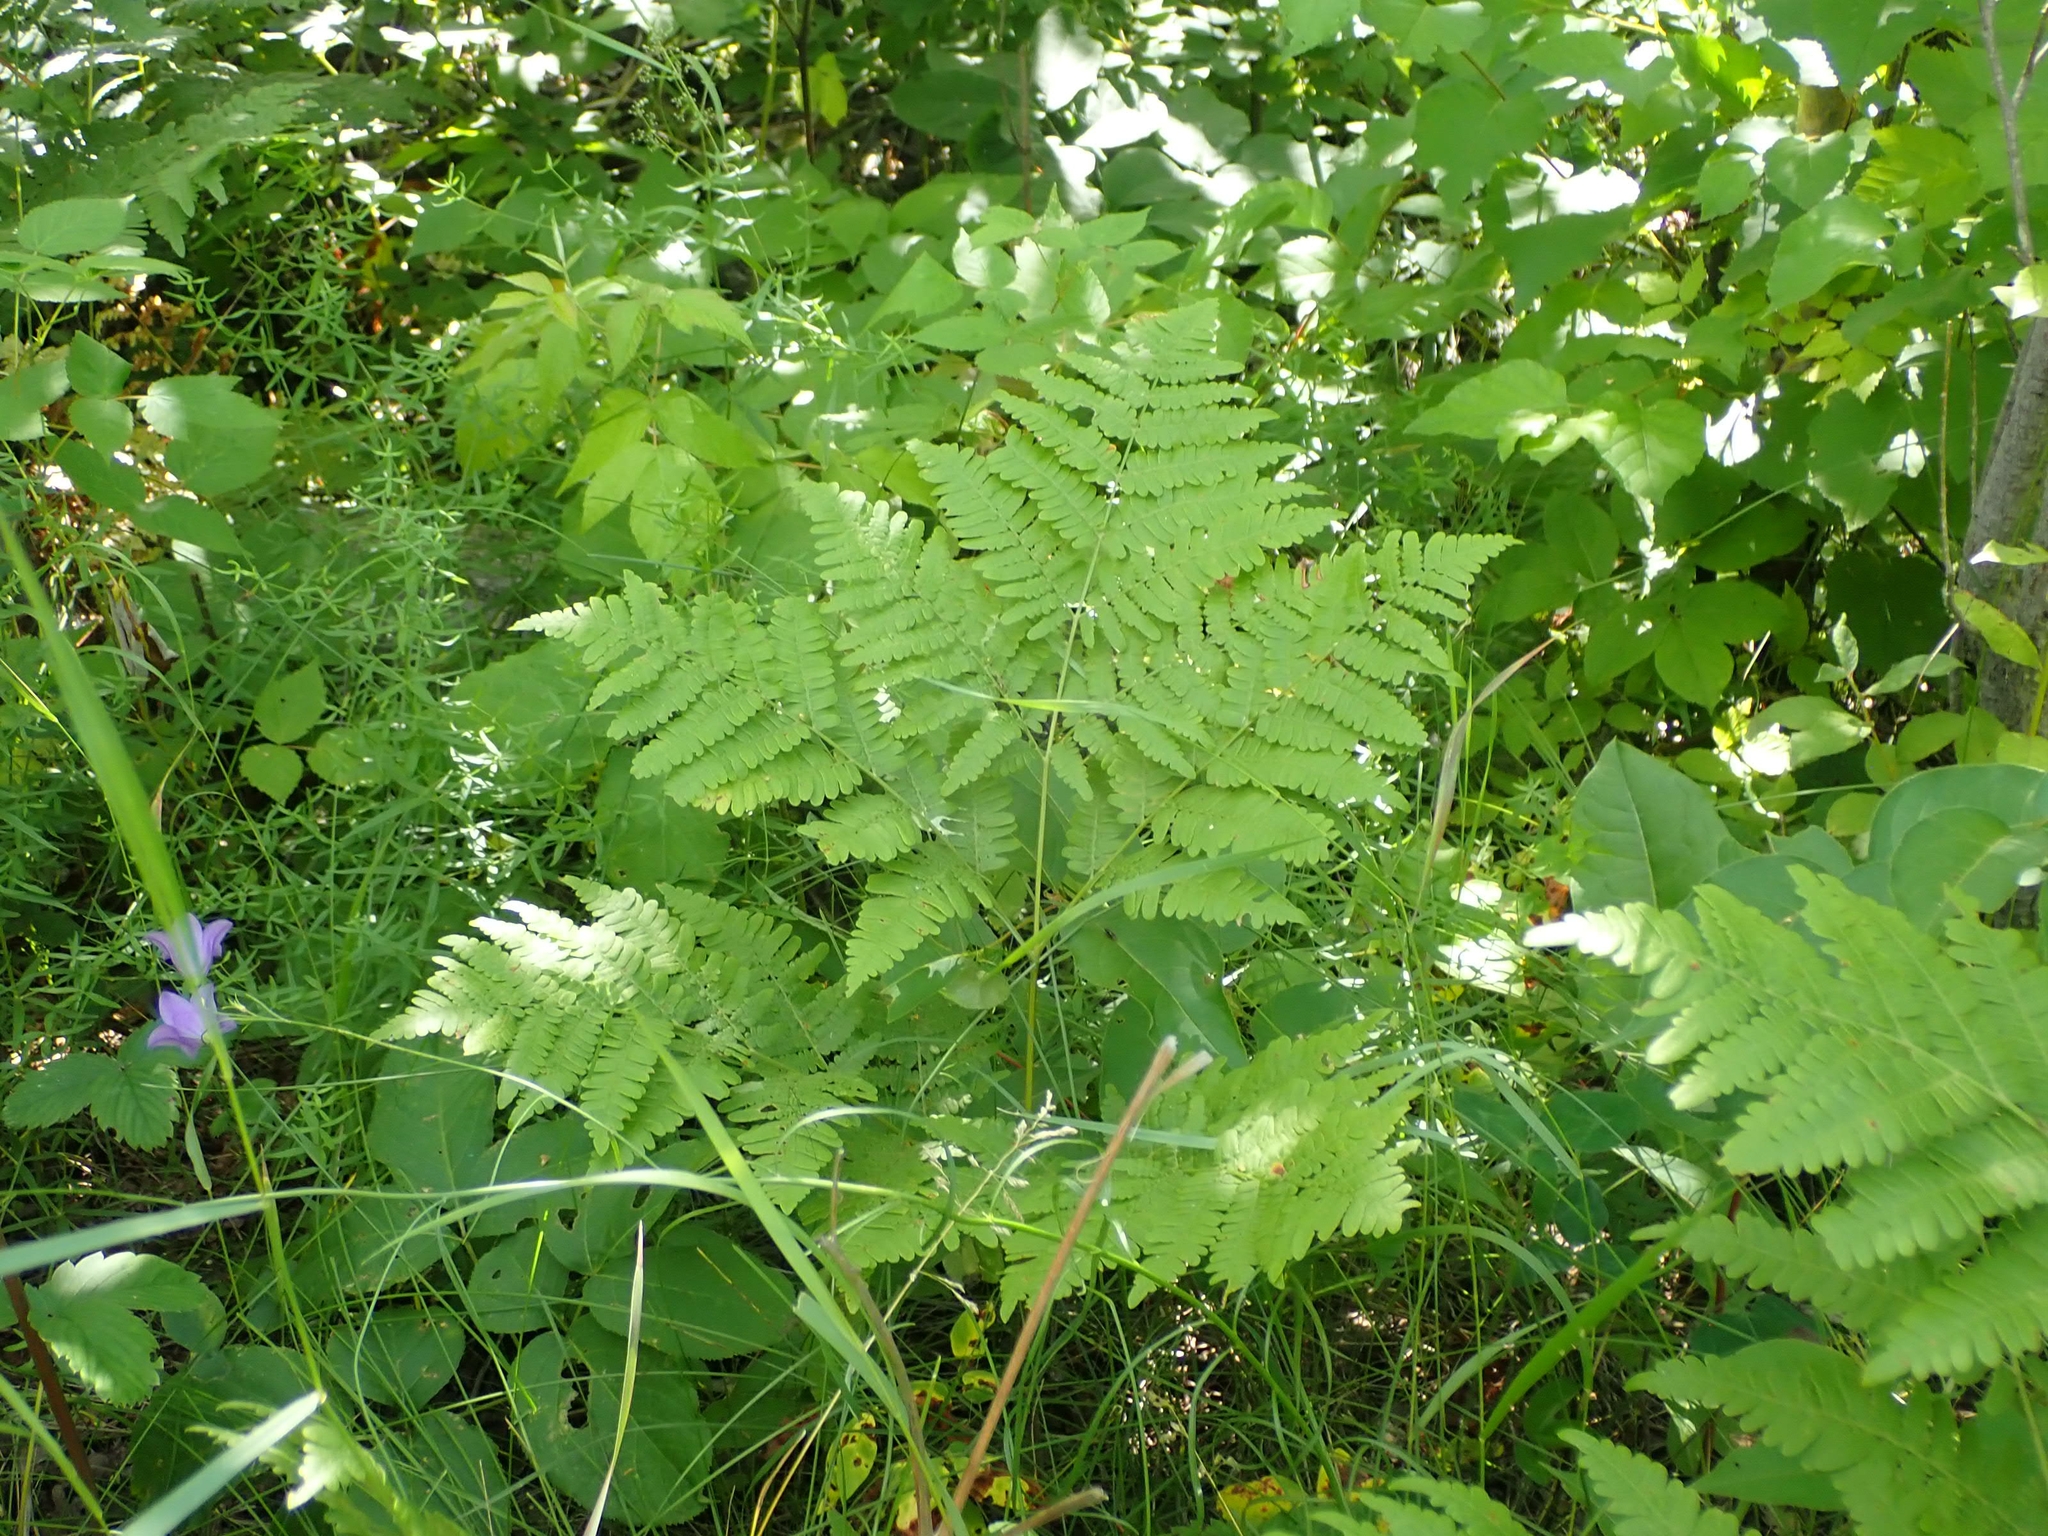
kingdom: Plantae
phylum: Tracheophyta
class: Polypodiopsida
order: Polypodiales
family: Dennstaedtiaceae
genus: Pteridium
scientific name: Pteridium aquilinum
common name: Bracken
